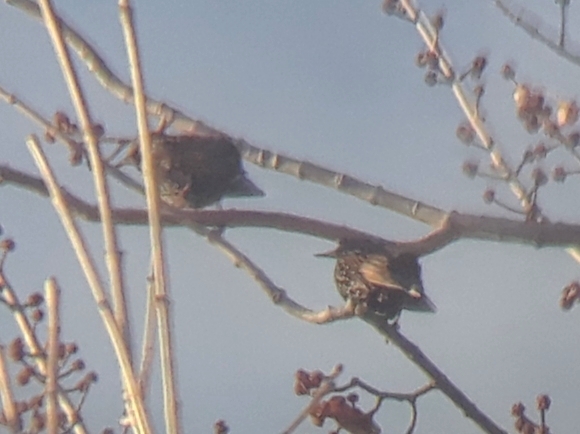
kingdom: Animalia
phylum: Chordata
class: Aves
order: Passeriformes
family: Sturnidae
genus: Sturnus
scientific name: Sturnus vulgaris
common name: Common starling
